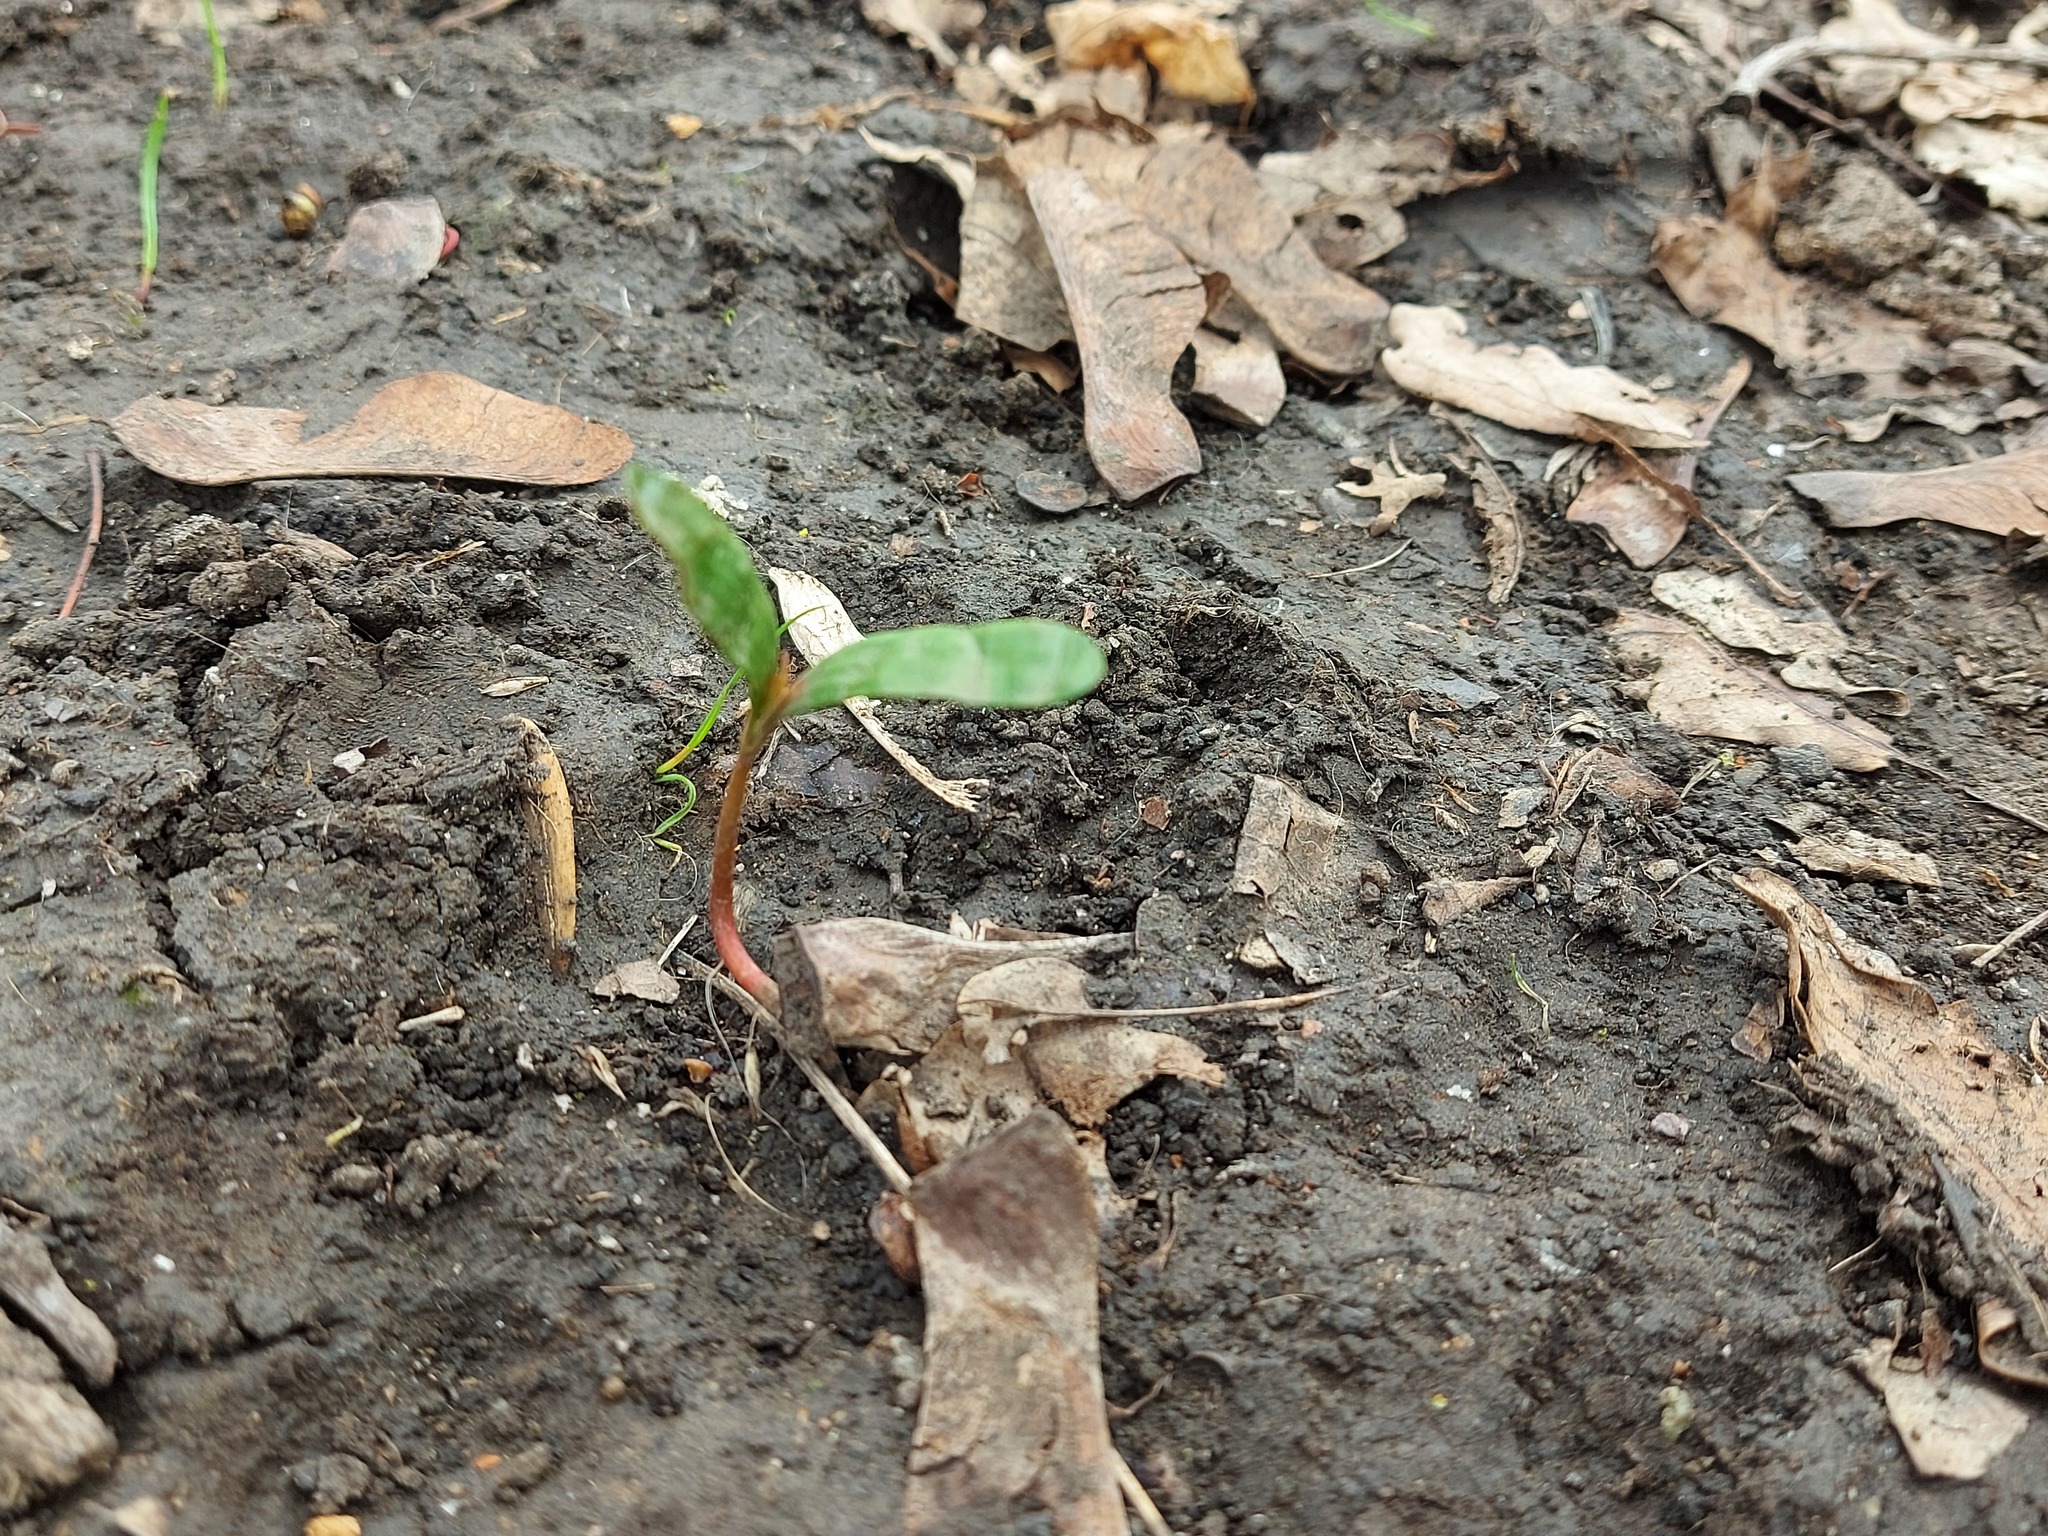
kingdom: Plantae
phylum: Tracheophyta
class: Magnoliopsida
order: Sapindales
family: Sapindaceae
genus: Acer
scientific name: Acer platanoides
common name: Norway maple
